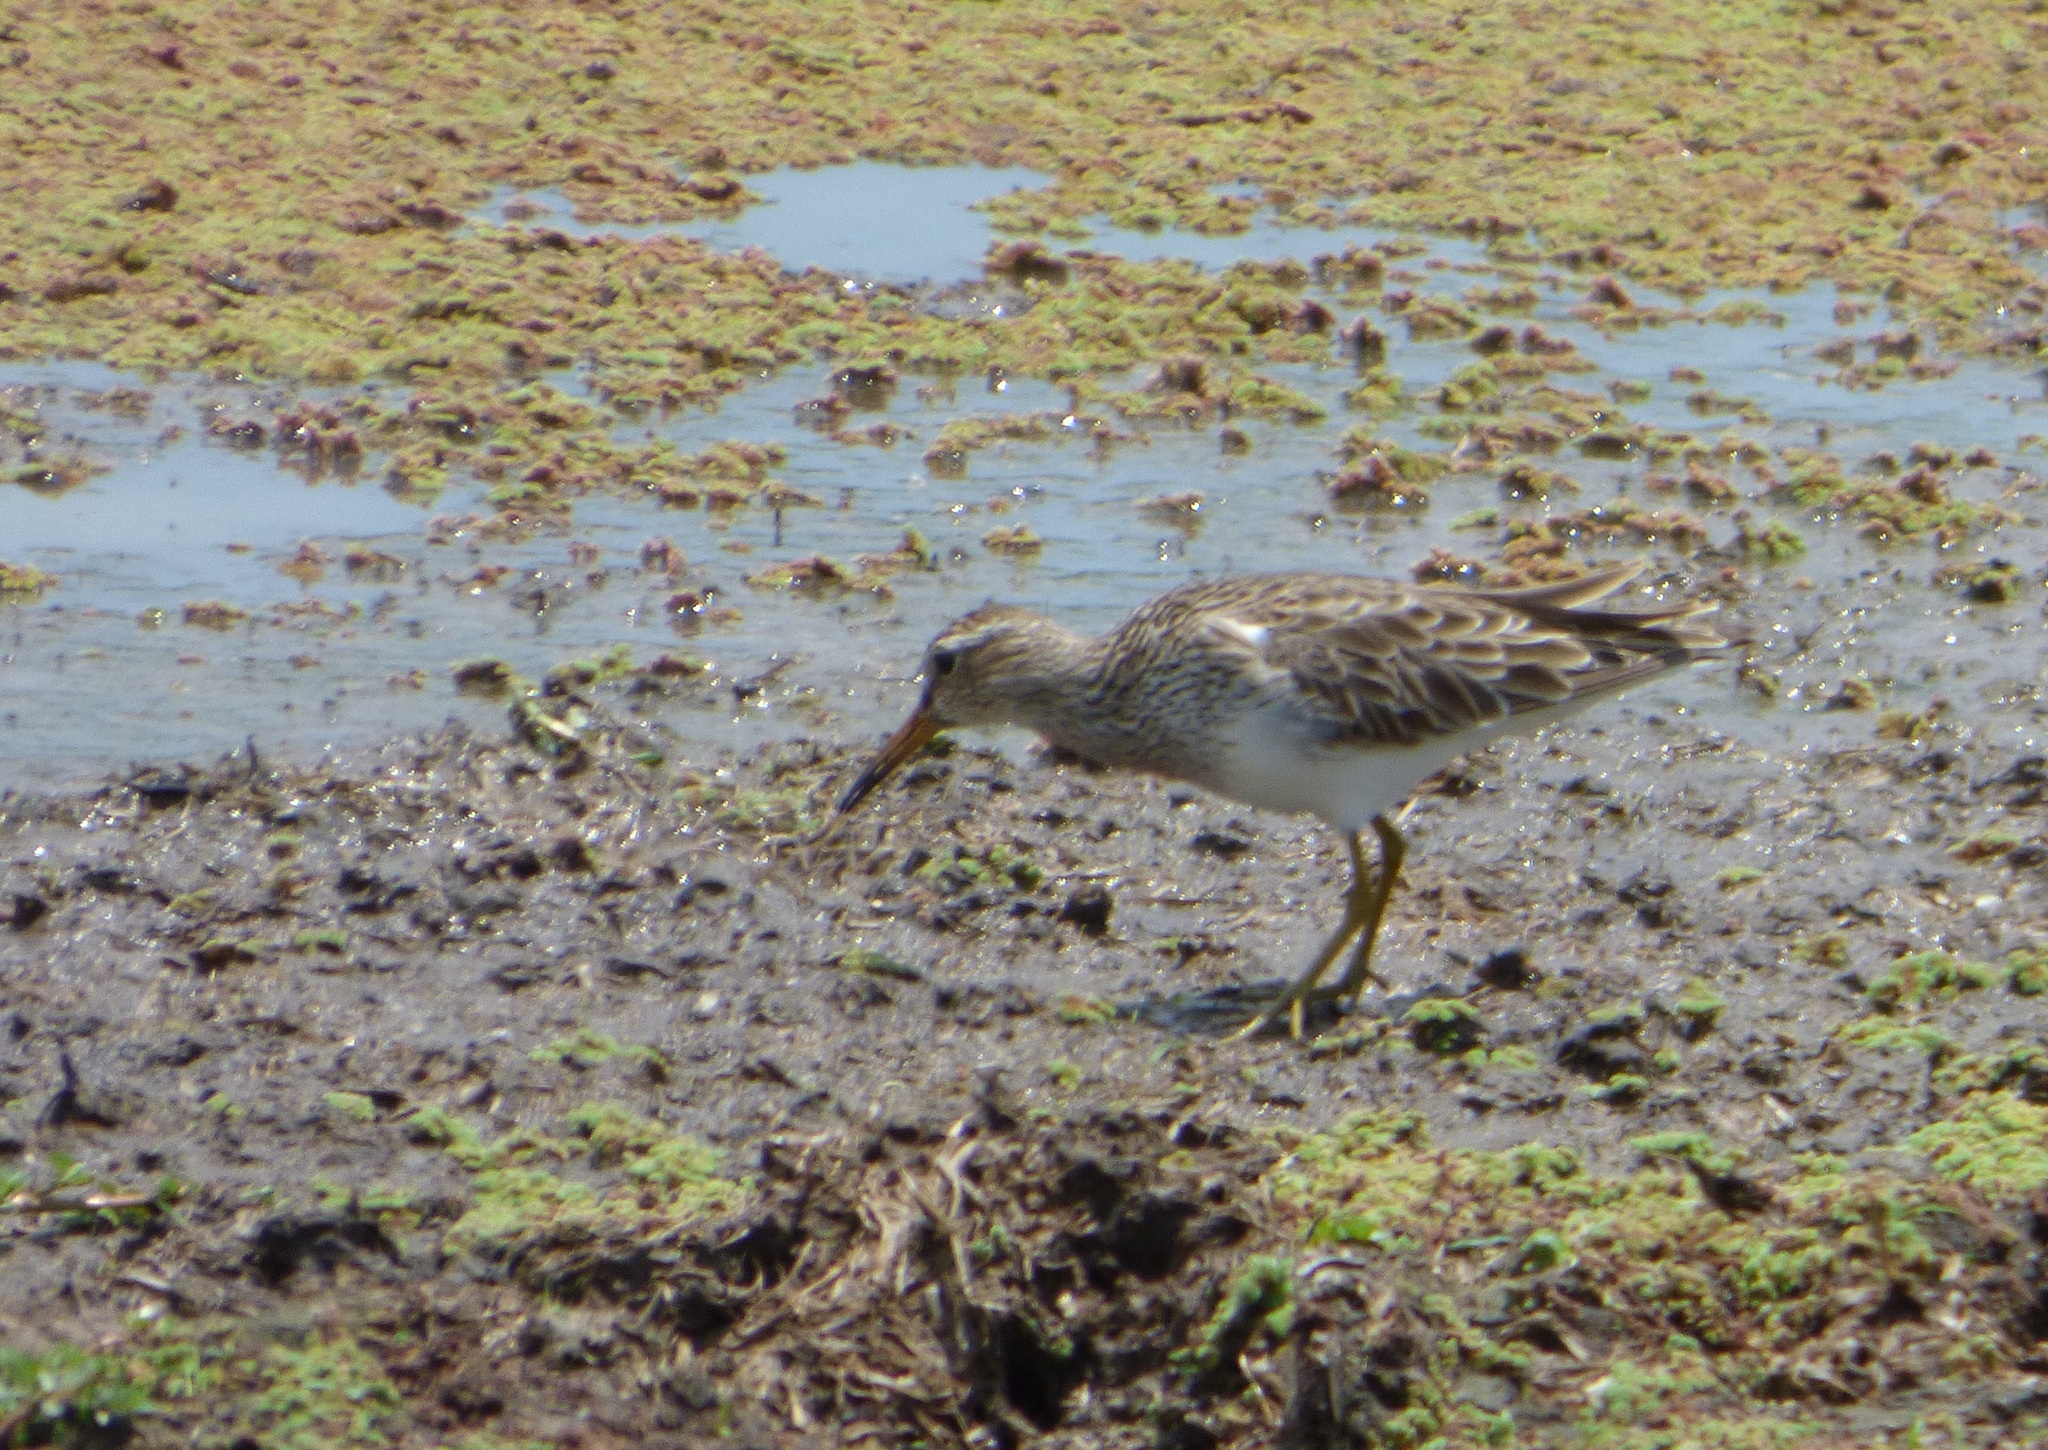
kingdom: Animalia
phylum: Chordata
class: Aves
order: Charadriiformes
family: Scolopacidae
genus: Calidris
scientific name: Calidris melanotos
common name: Pectoral sandpiper
